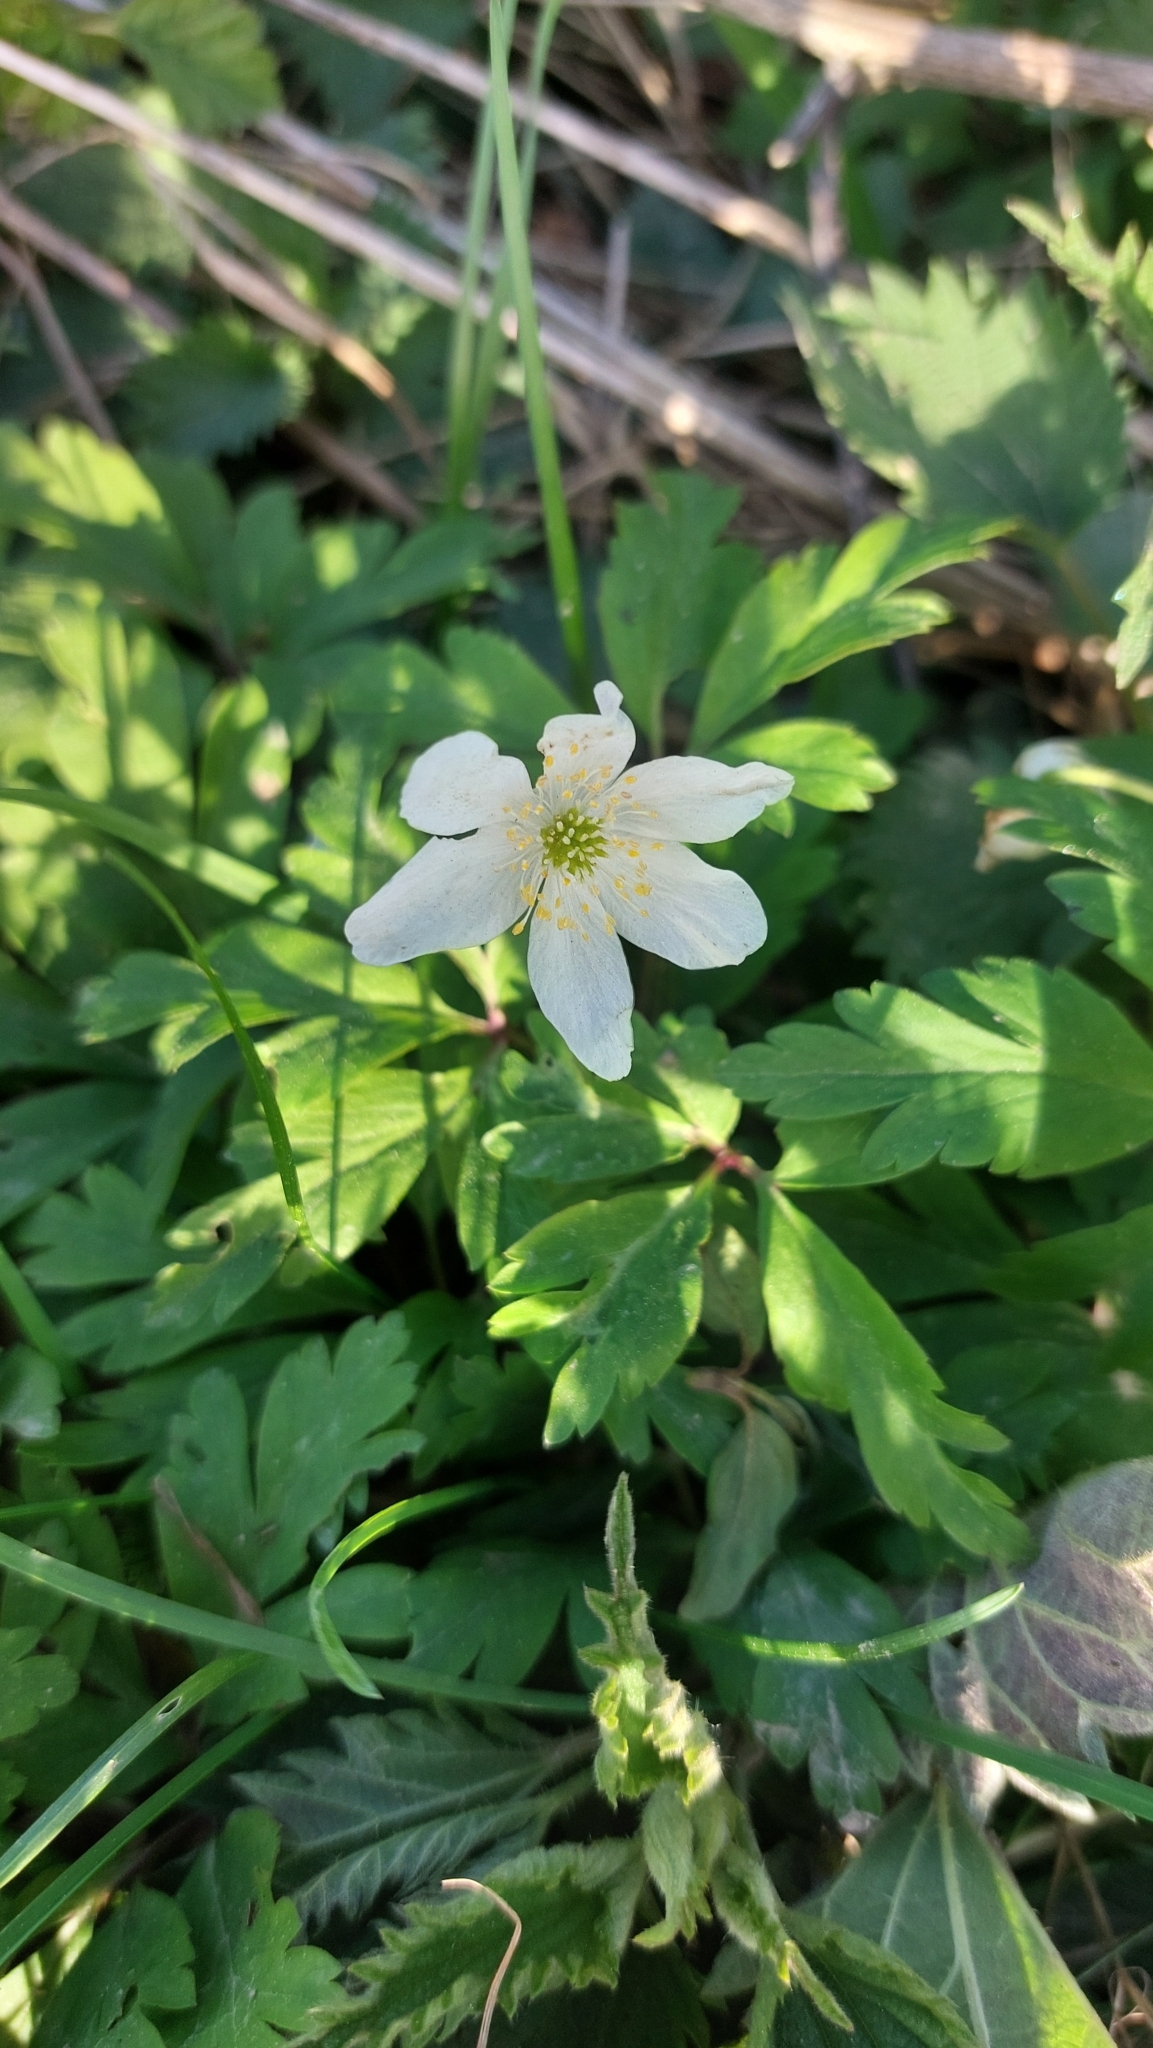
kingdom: Plantae
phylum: Tracheophyta
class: Magnoliopsida
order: Ranunculales
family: Ranunculaceae
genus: Anemone
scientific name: Anemone nemorosa
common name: Wood anemone
